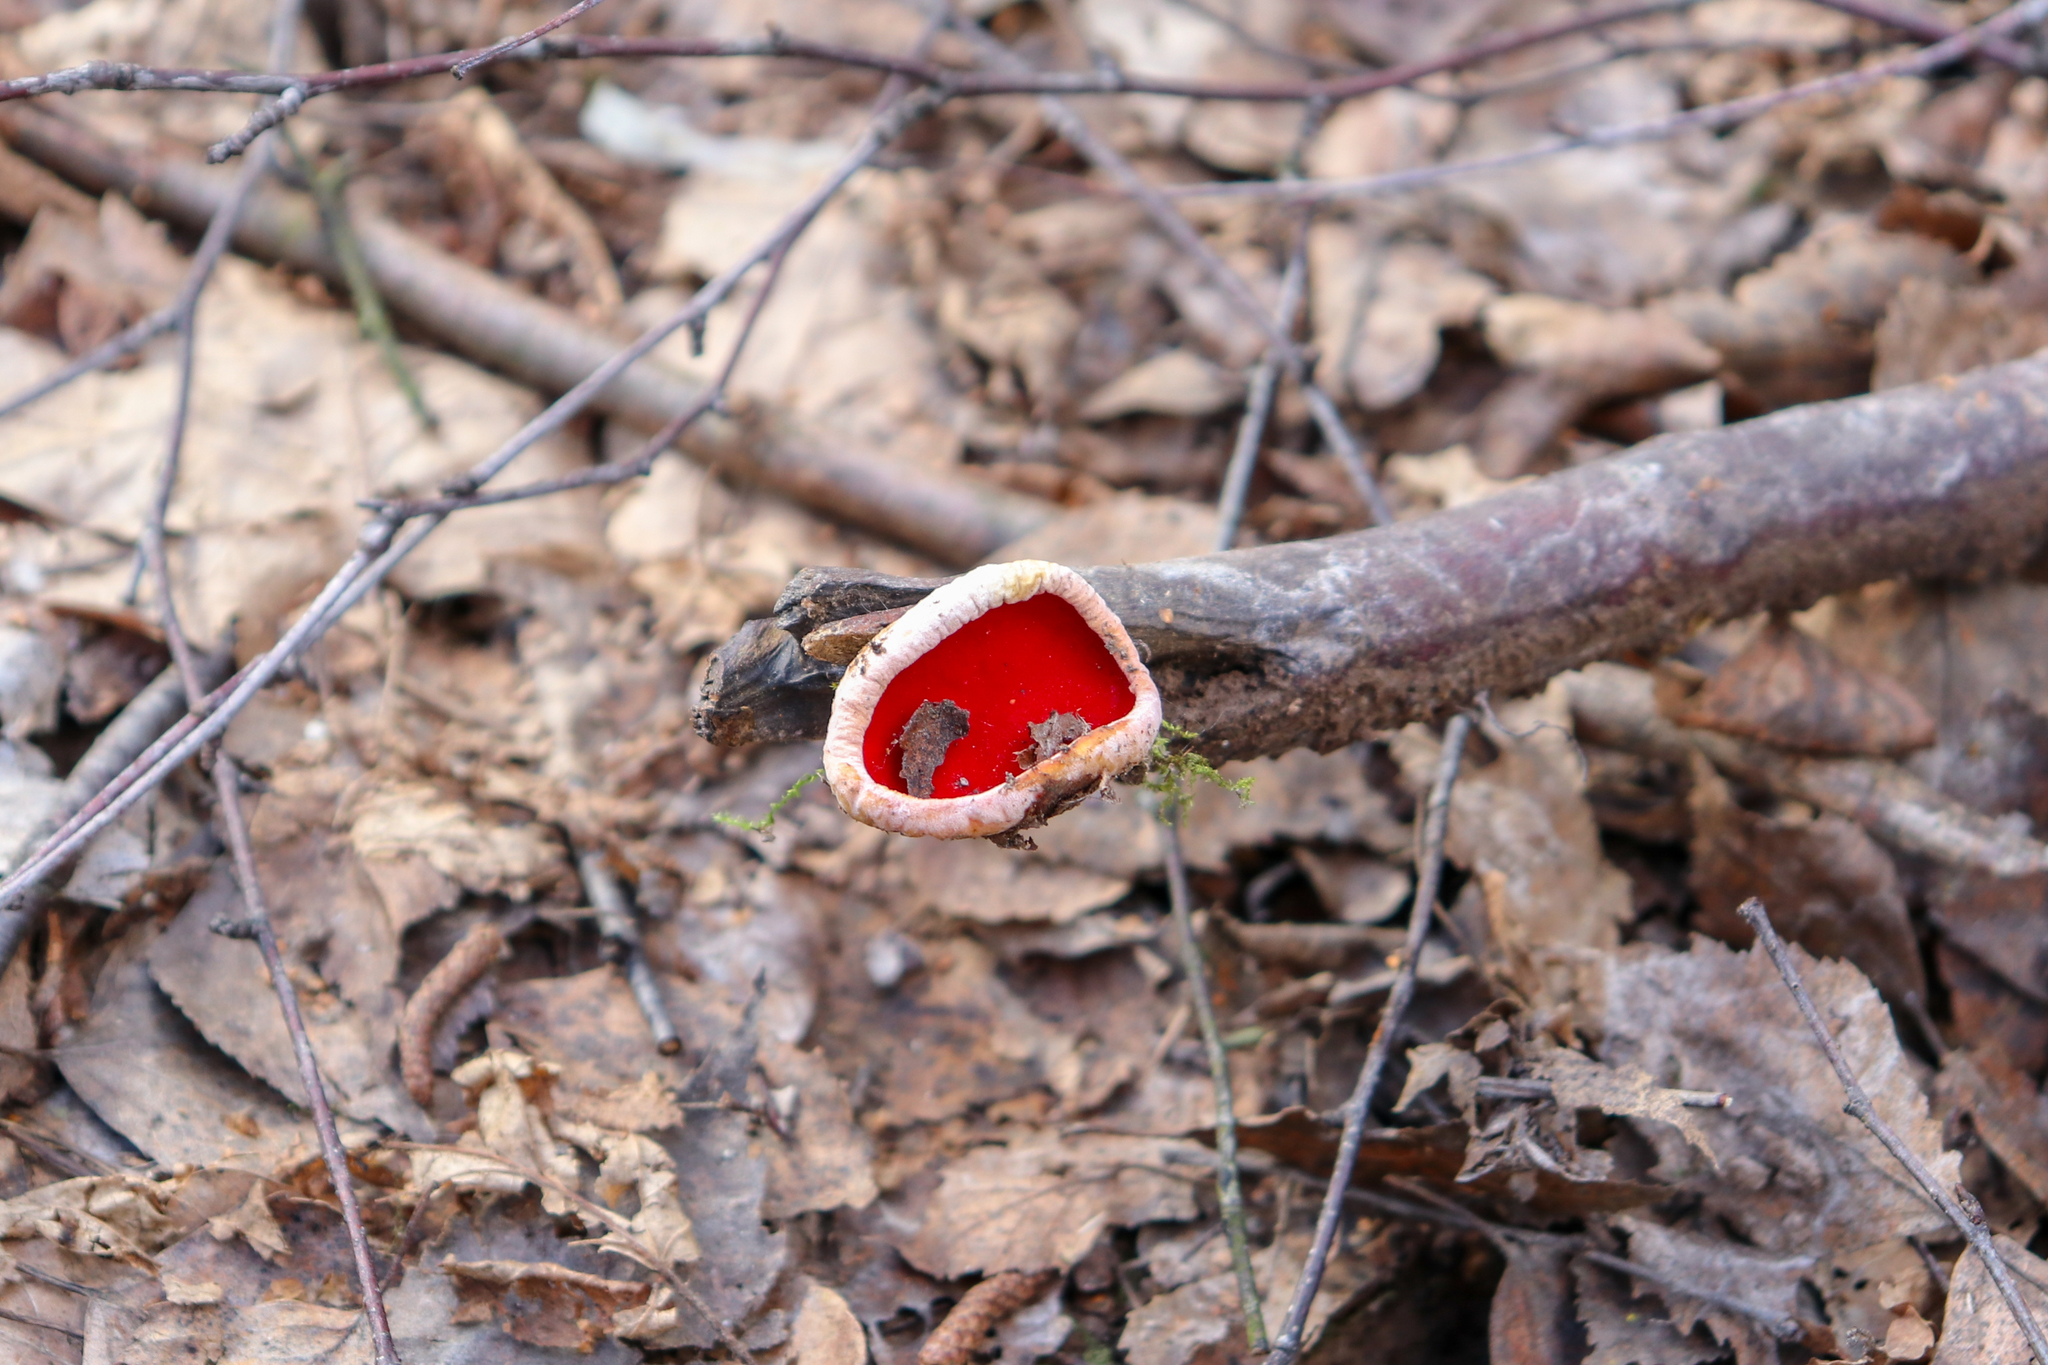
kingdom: Fungi
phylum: Ascomycota
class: Pezizomycetes
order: Pezizales
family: Sarcoscyphaceae
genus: Sarcoscypha
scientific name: Sarcoscypha austriaca
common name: Scarlet elfcup
